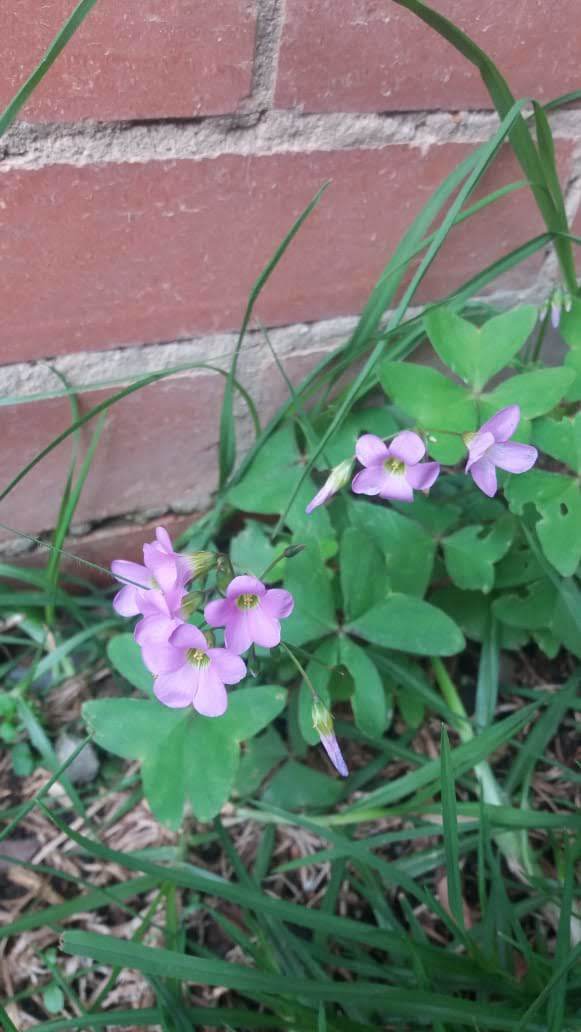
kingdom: Plantae
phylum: Tracheophyta
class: Magnoliopsida
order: Oxalidales
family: Oxalidaceae
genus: Oxalis
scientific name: Oxalis latifolia
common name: Garden pink-sorrel
